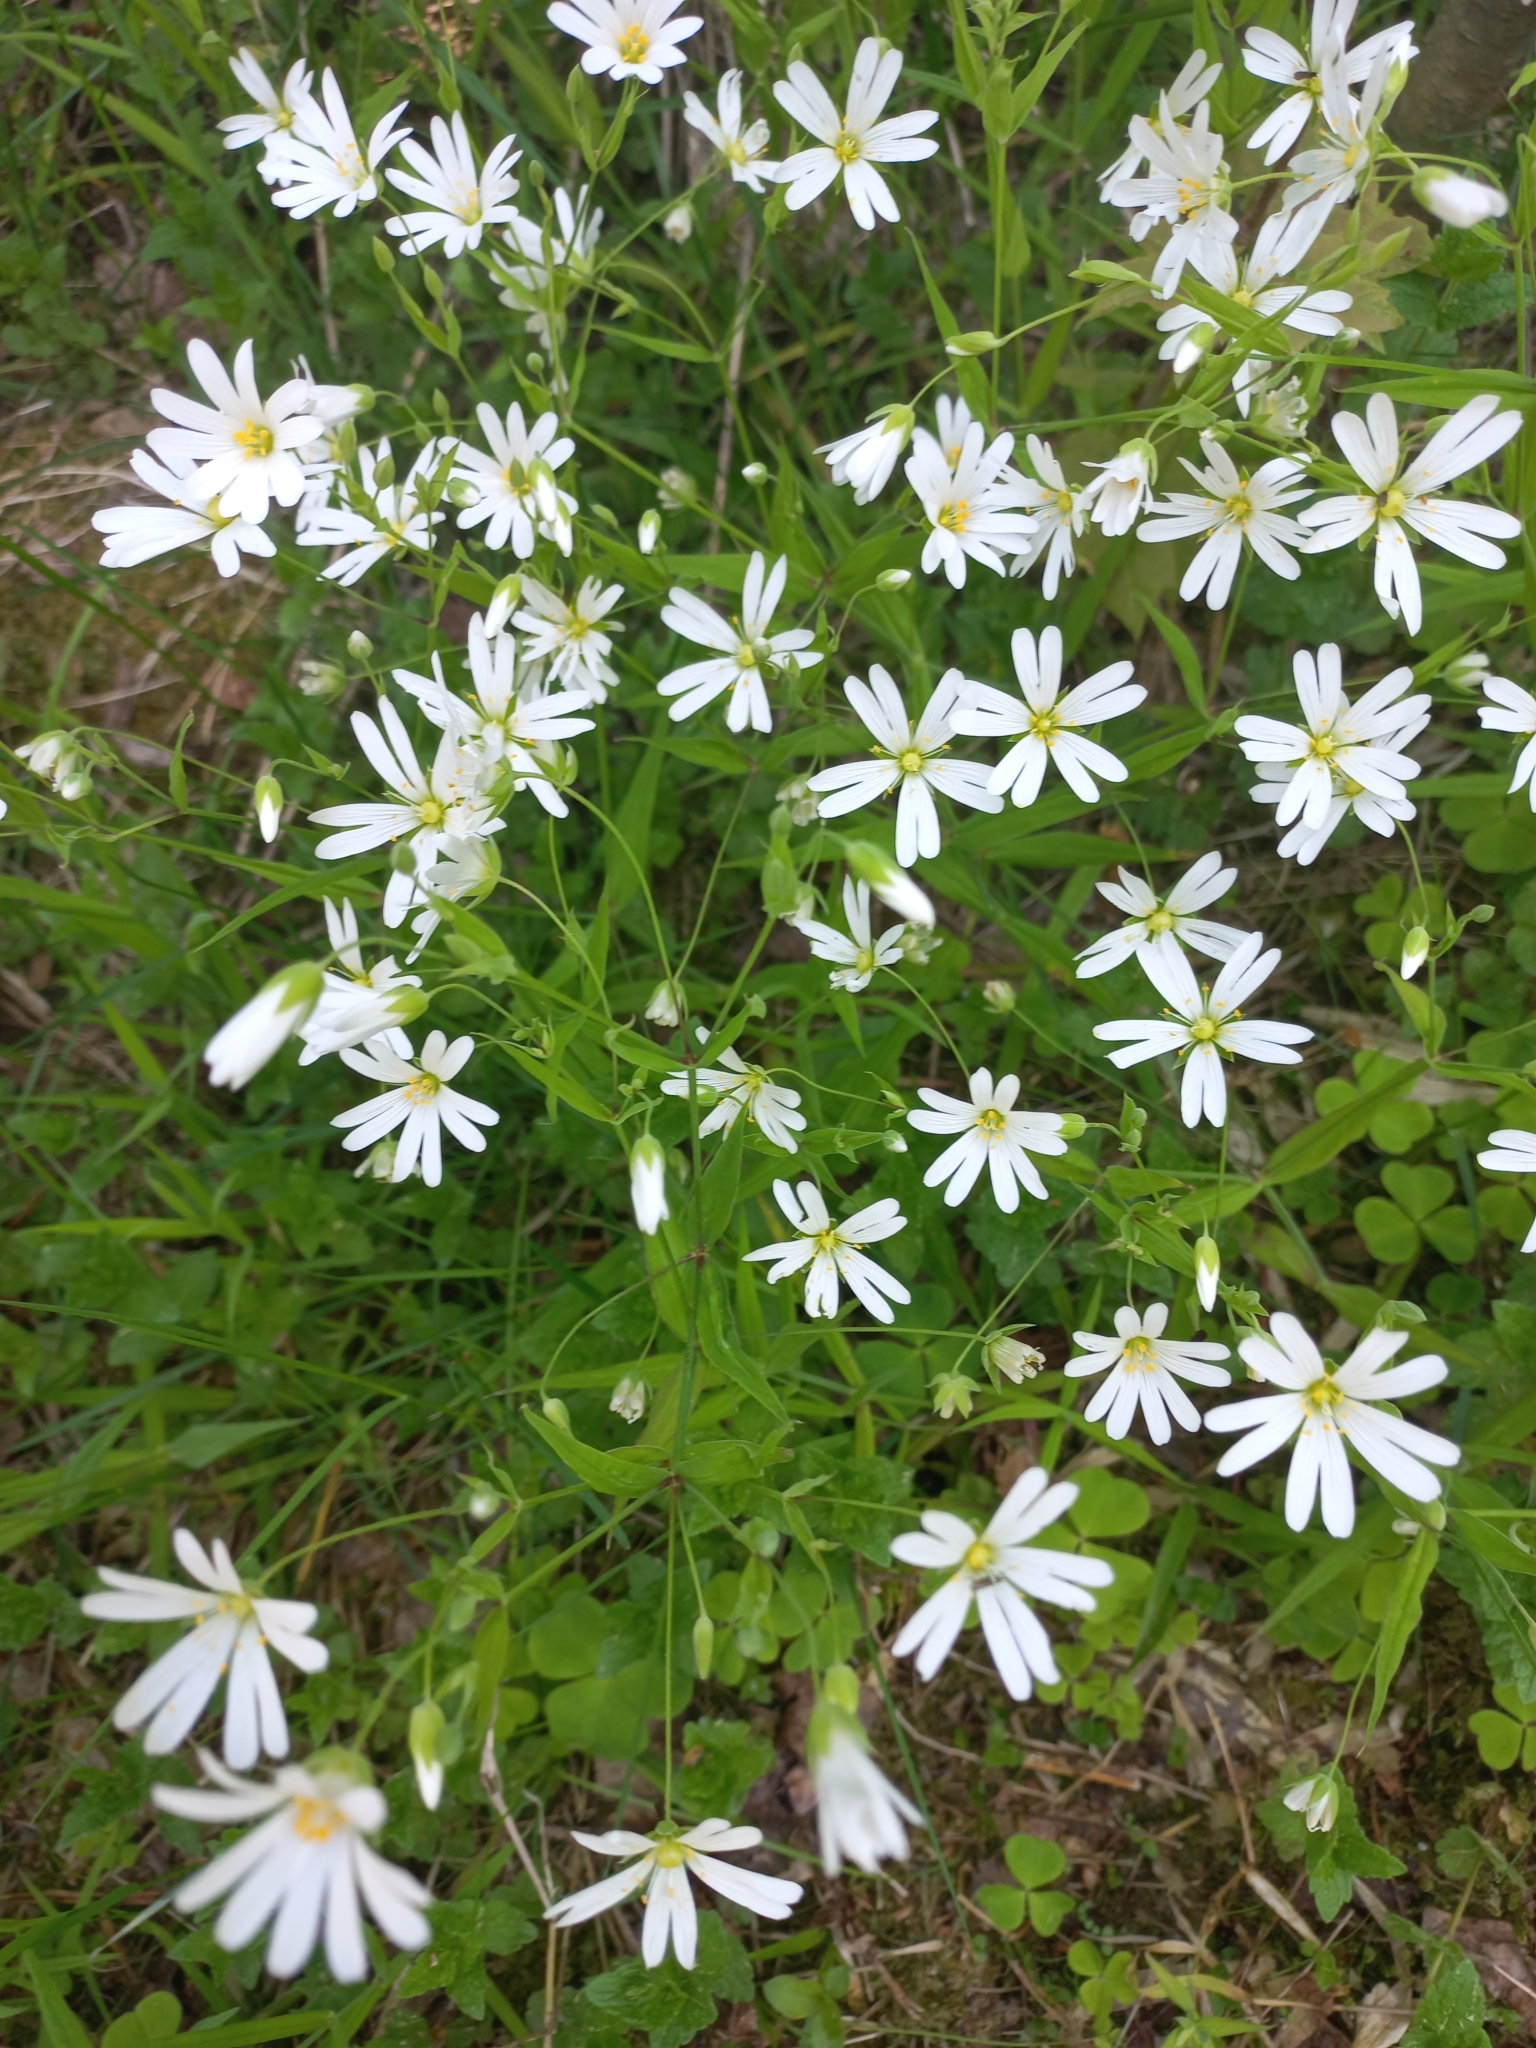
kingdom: Plantae
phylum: Tracheophyta
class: Magnoliopsida
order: Caryophyllales
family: Caryophyllaceae
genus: Rabelera
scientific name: Rabelera holostea
